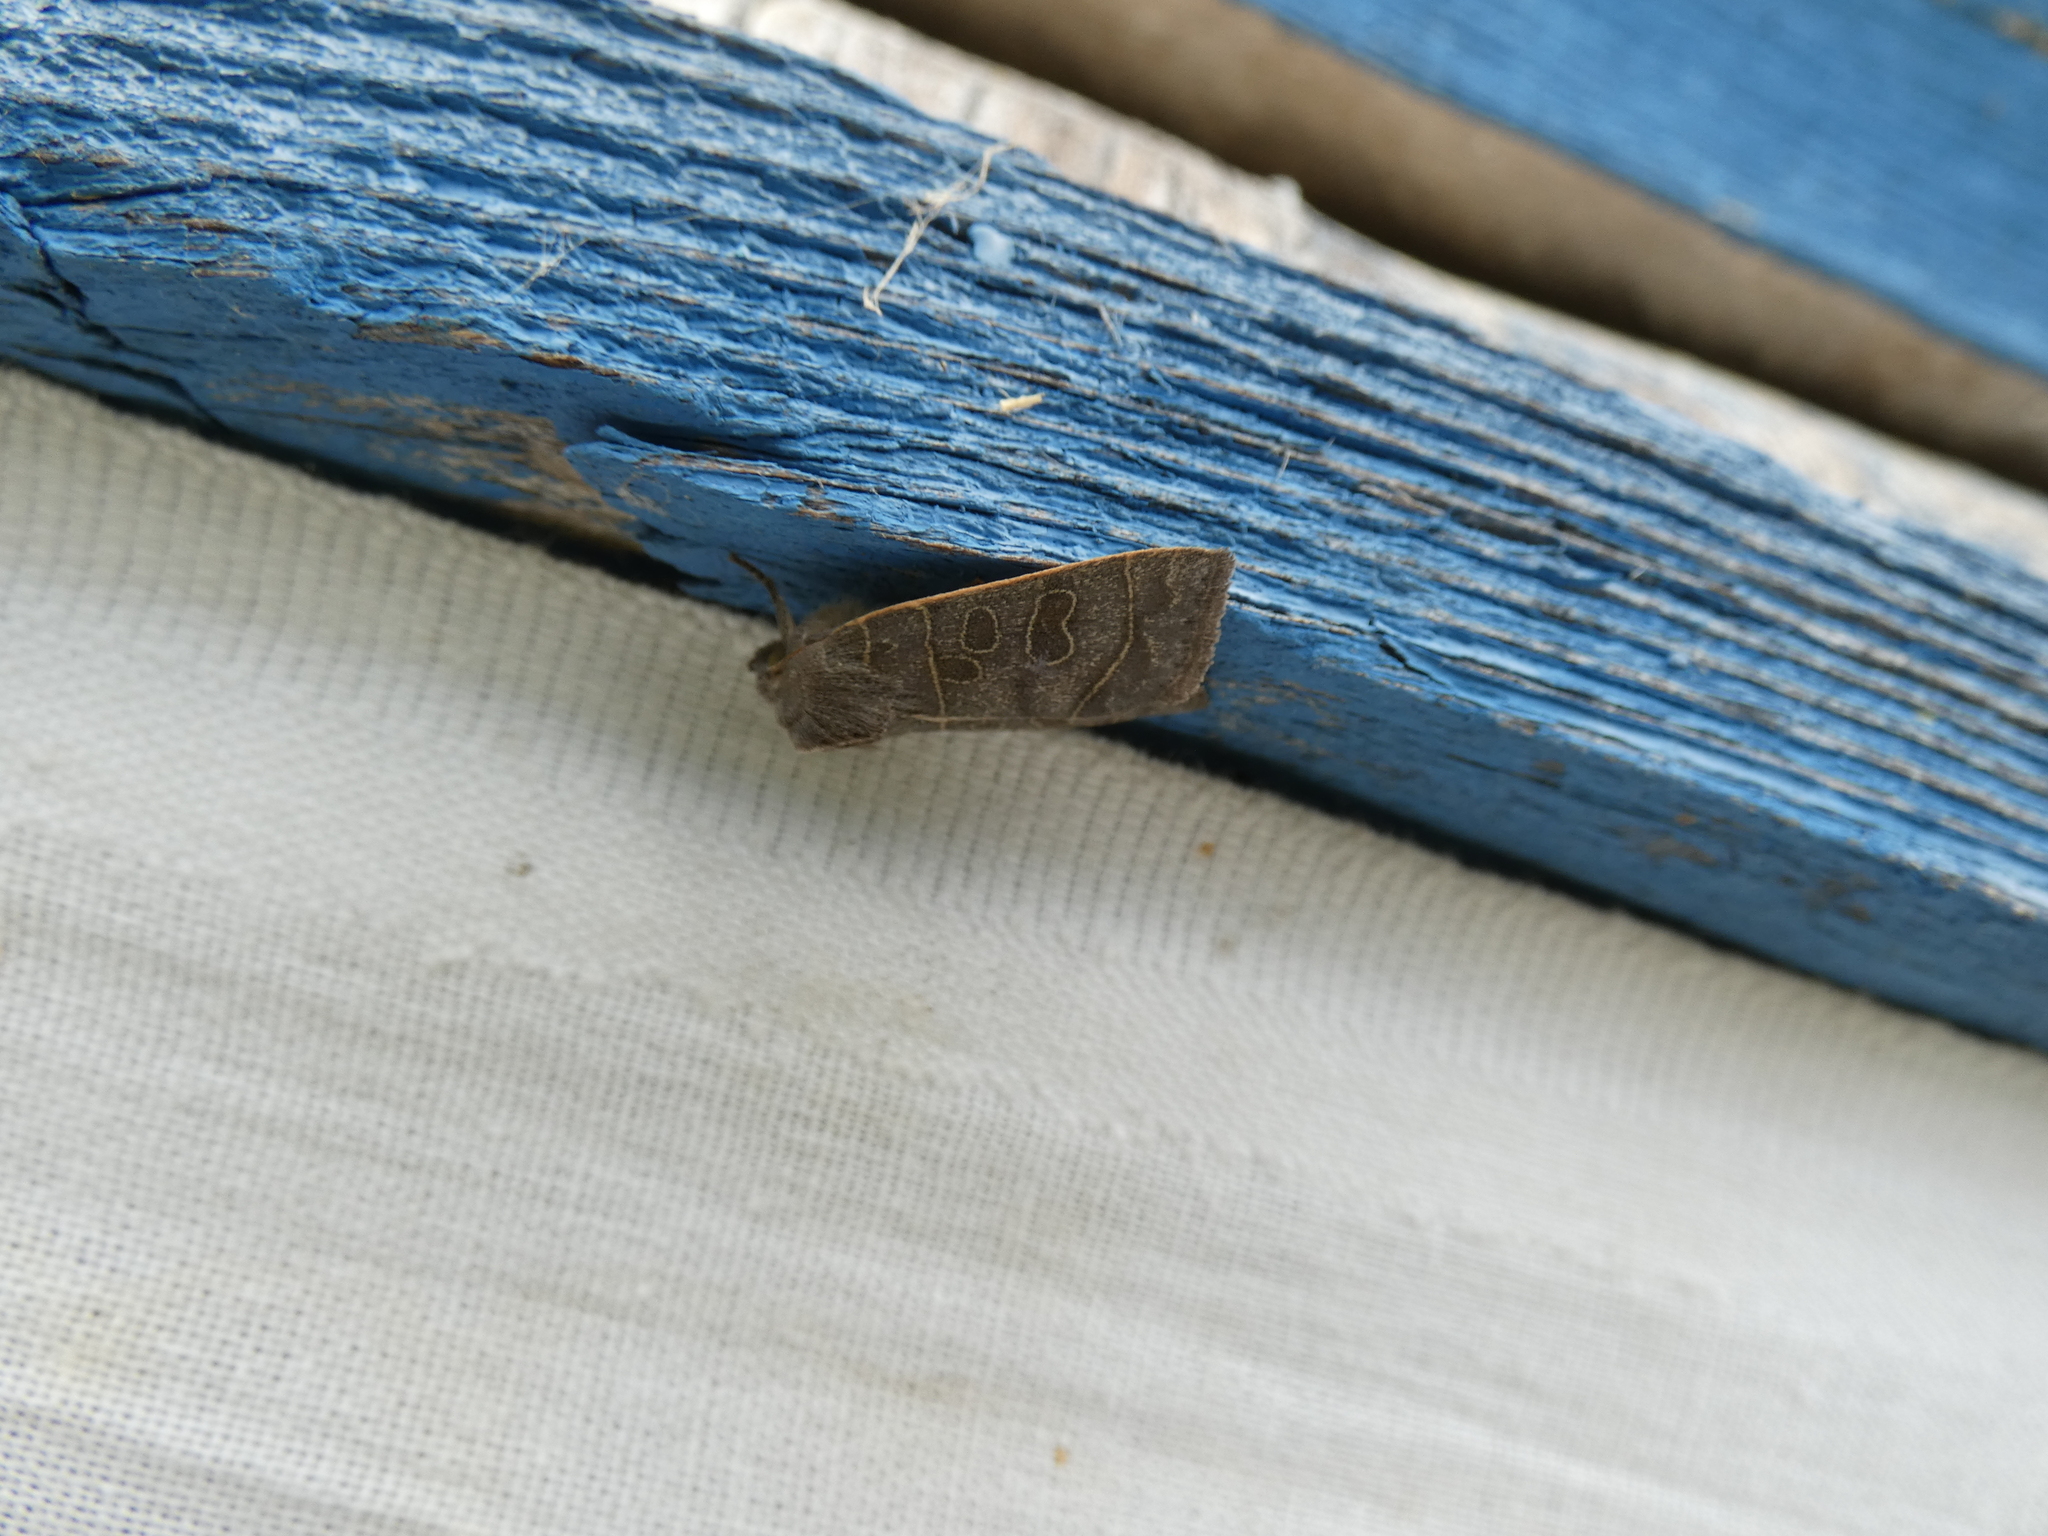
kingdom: Animalia
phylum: Arthropoda
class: Insecta
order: Lepidoptera
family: Noctuidae
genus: Ipimorpha
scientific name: Ipimorpha subtusa
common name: Olive
